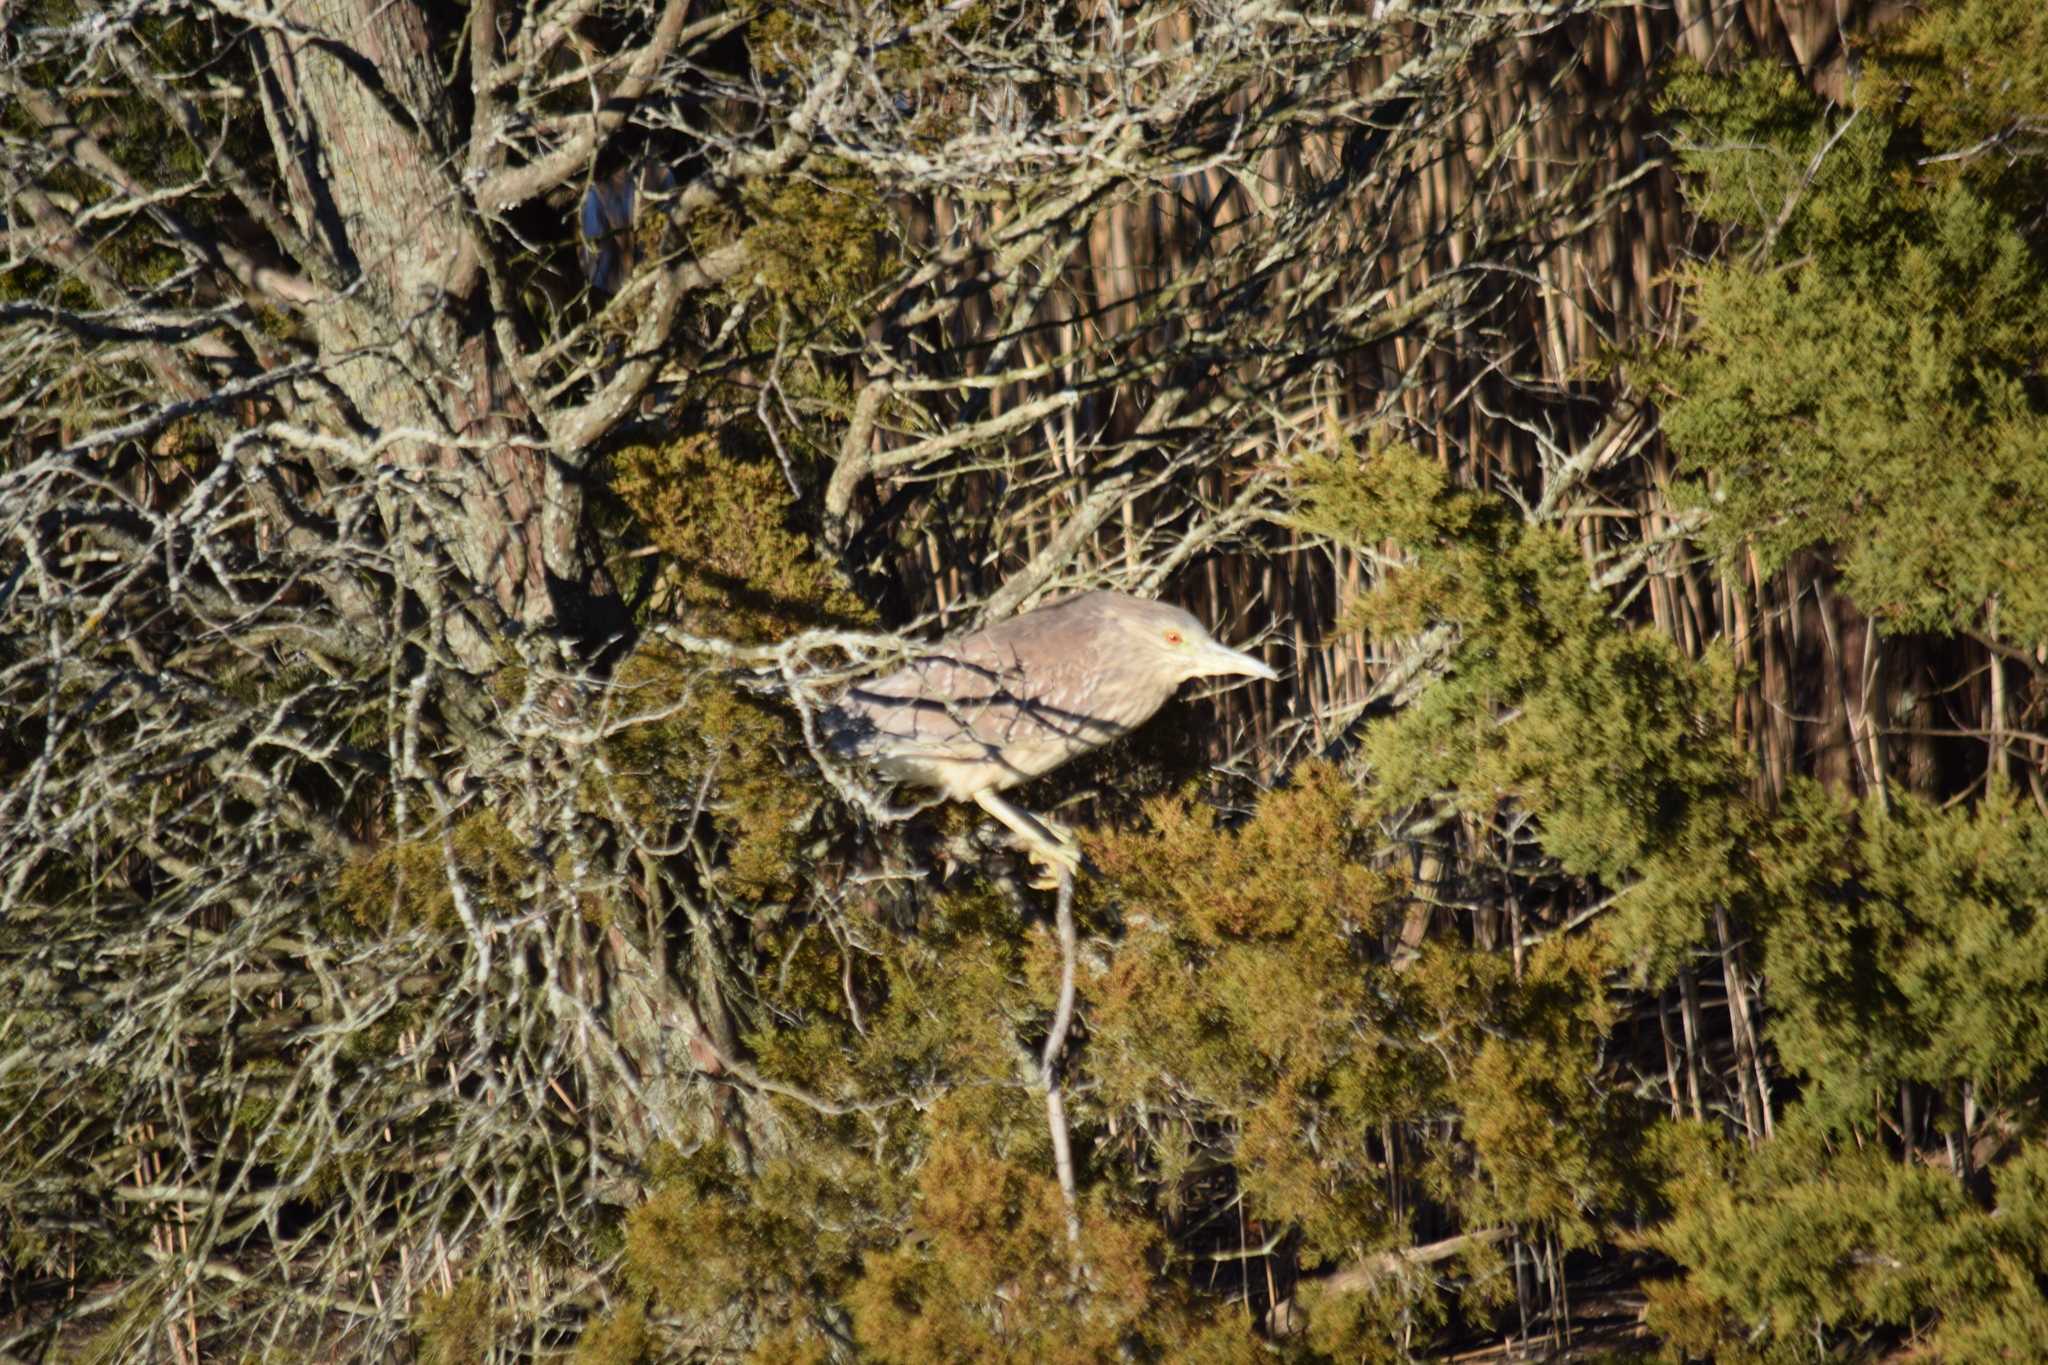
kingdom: Animalia
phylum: Chordata
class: Aves
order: Pelecaniformes
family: Ardeidae
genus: Nycticorax
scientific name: Nycticorax nycticorax
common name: Black-crowned night heron
